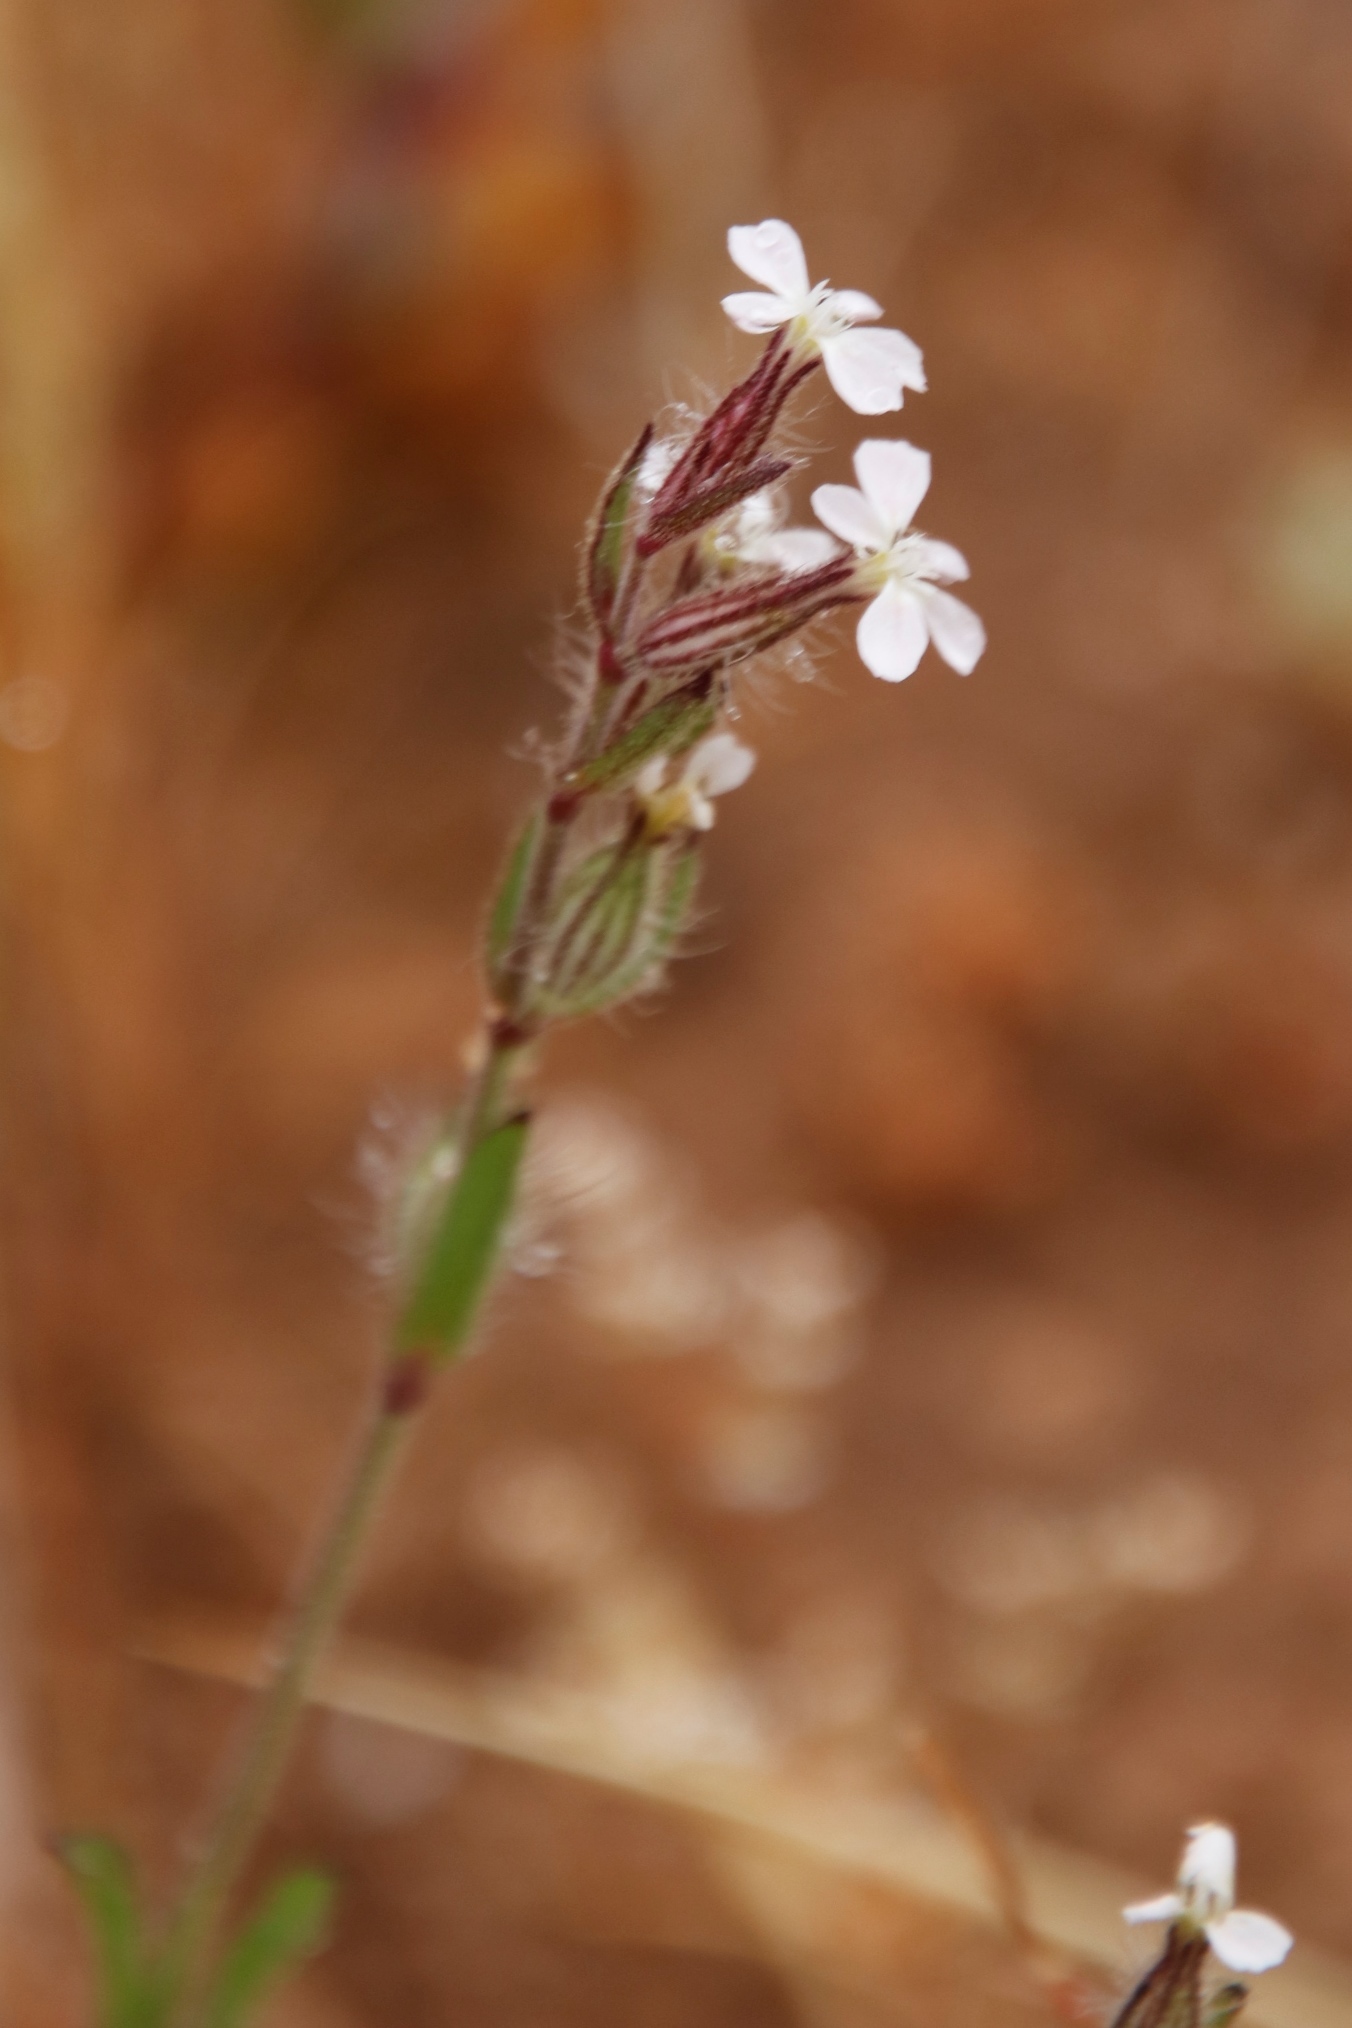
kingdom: Plantae
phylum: Tracheophyta
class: Magnoliopsida
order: Caryophyllales
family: Caryophyllaceae
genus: Silene
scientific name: Silene gallica
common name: Small-flowered catchfly
